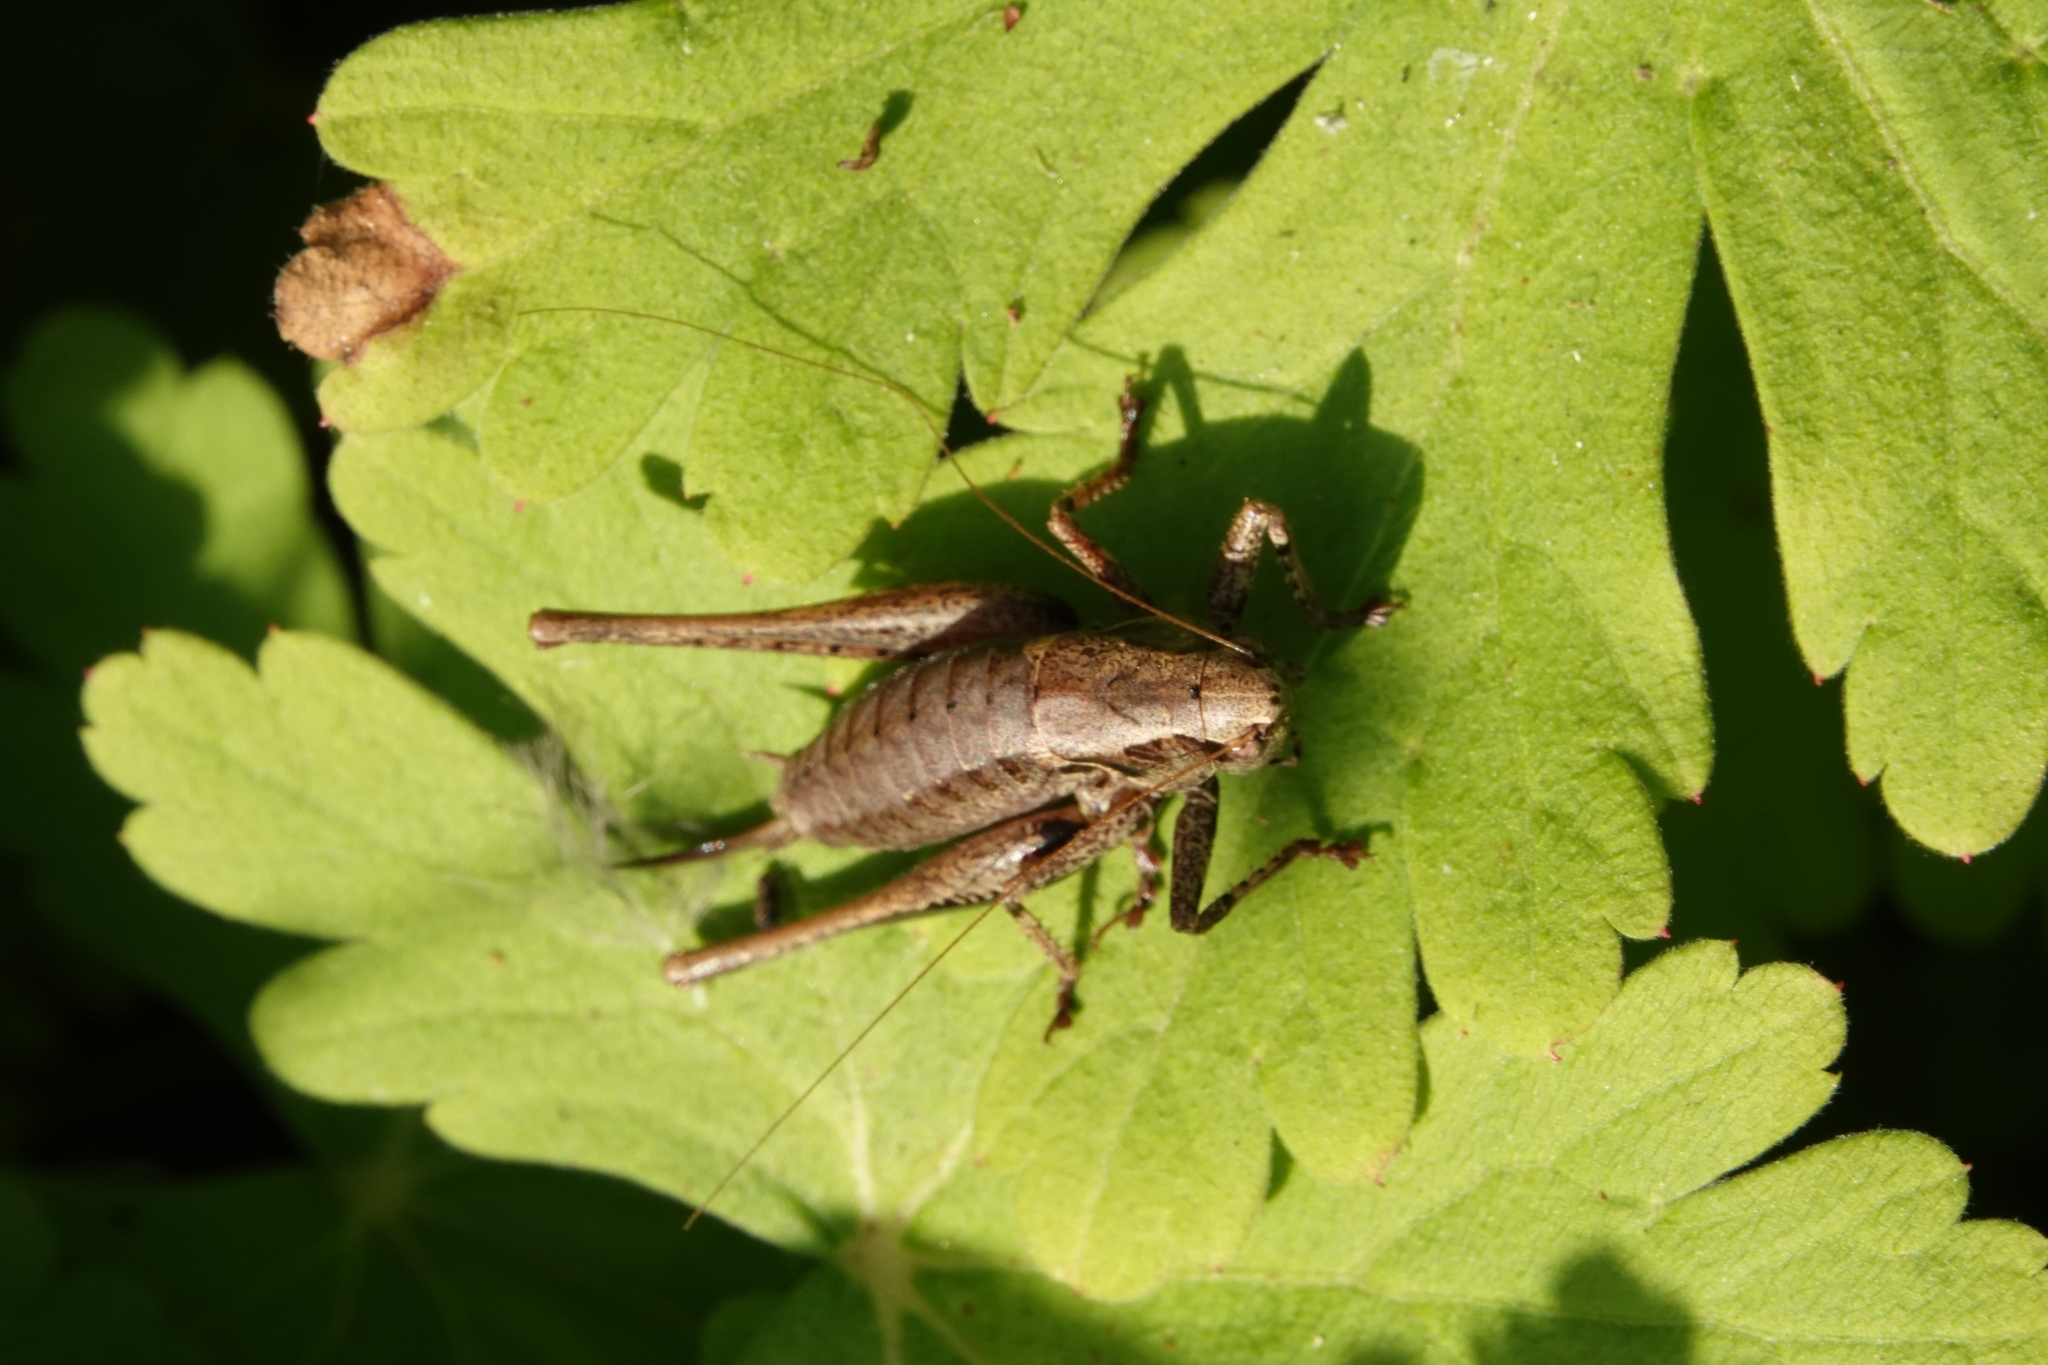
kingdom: Animalia
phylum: Arthropoda
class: Insecta
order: Orthoptera
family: Tettigoniidae
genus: Pholidoptera
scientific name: Pholidoptera griseoaptera
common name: Dark bush-cricket
